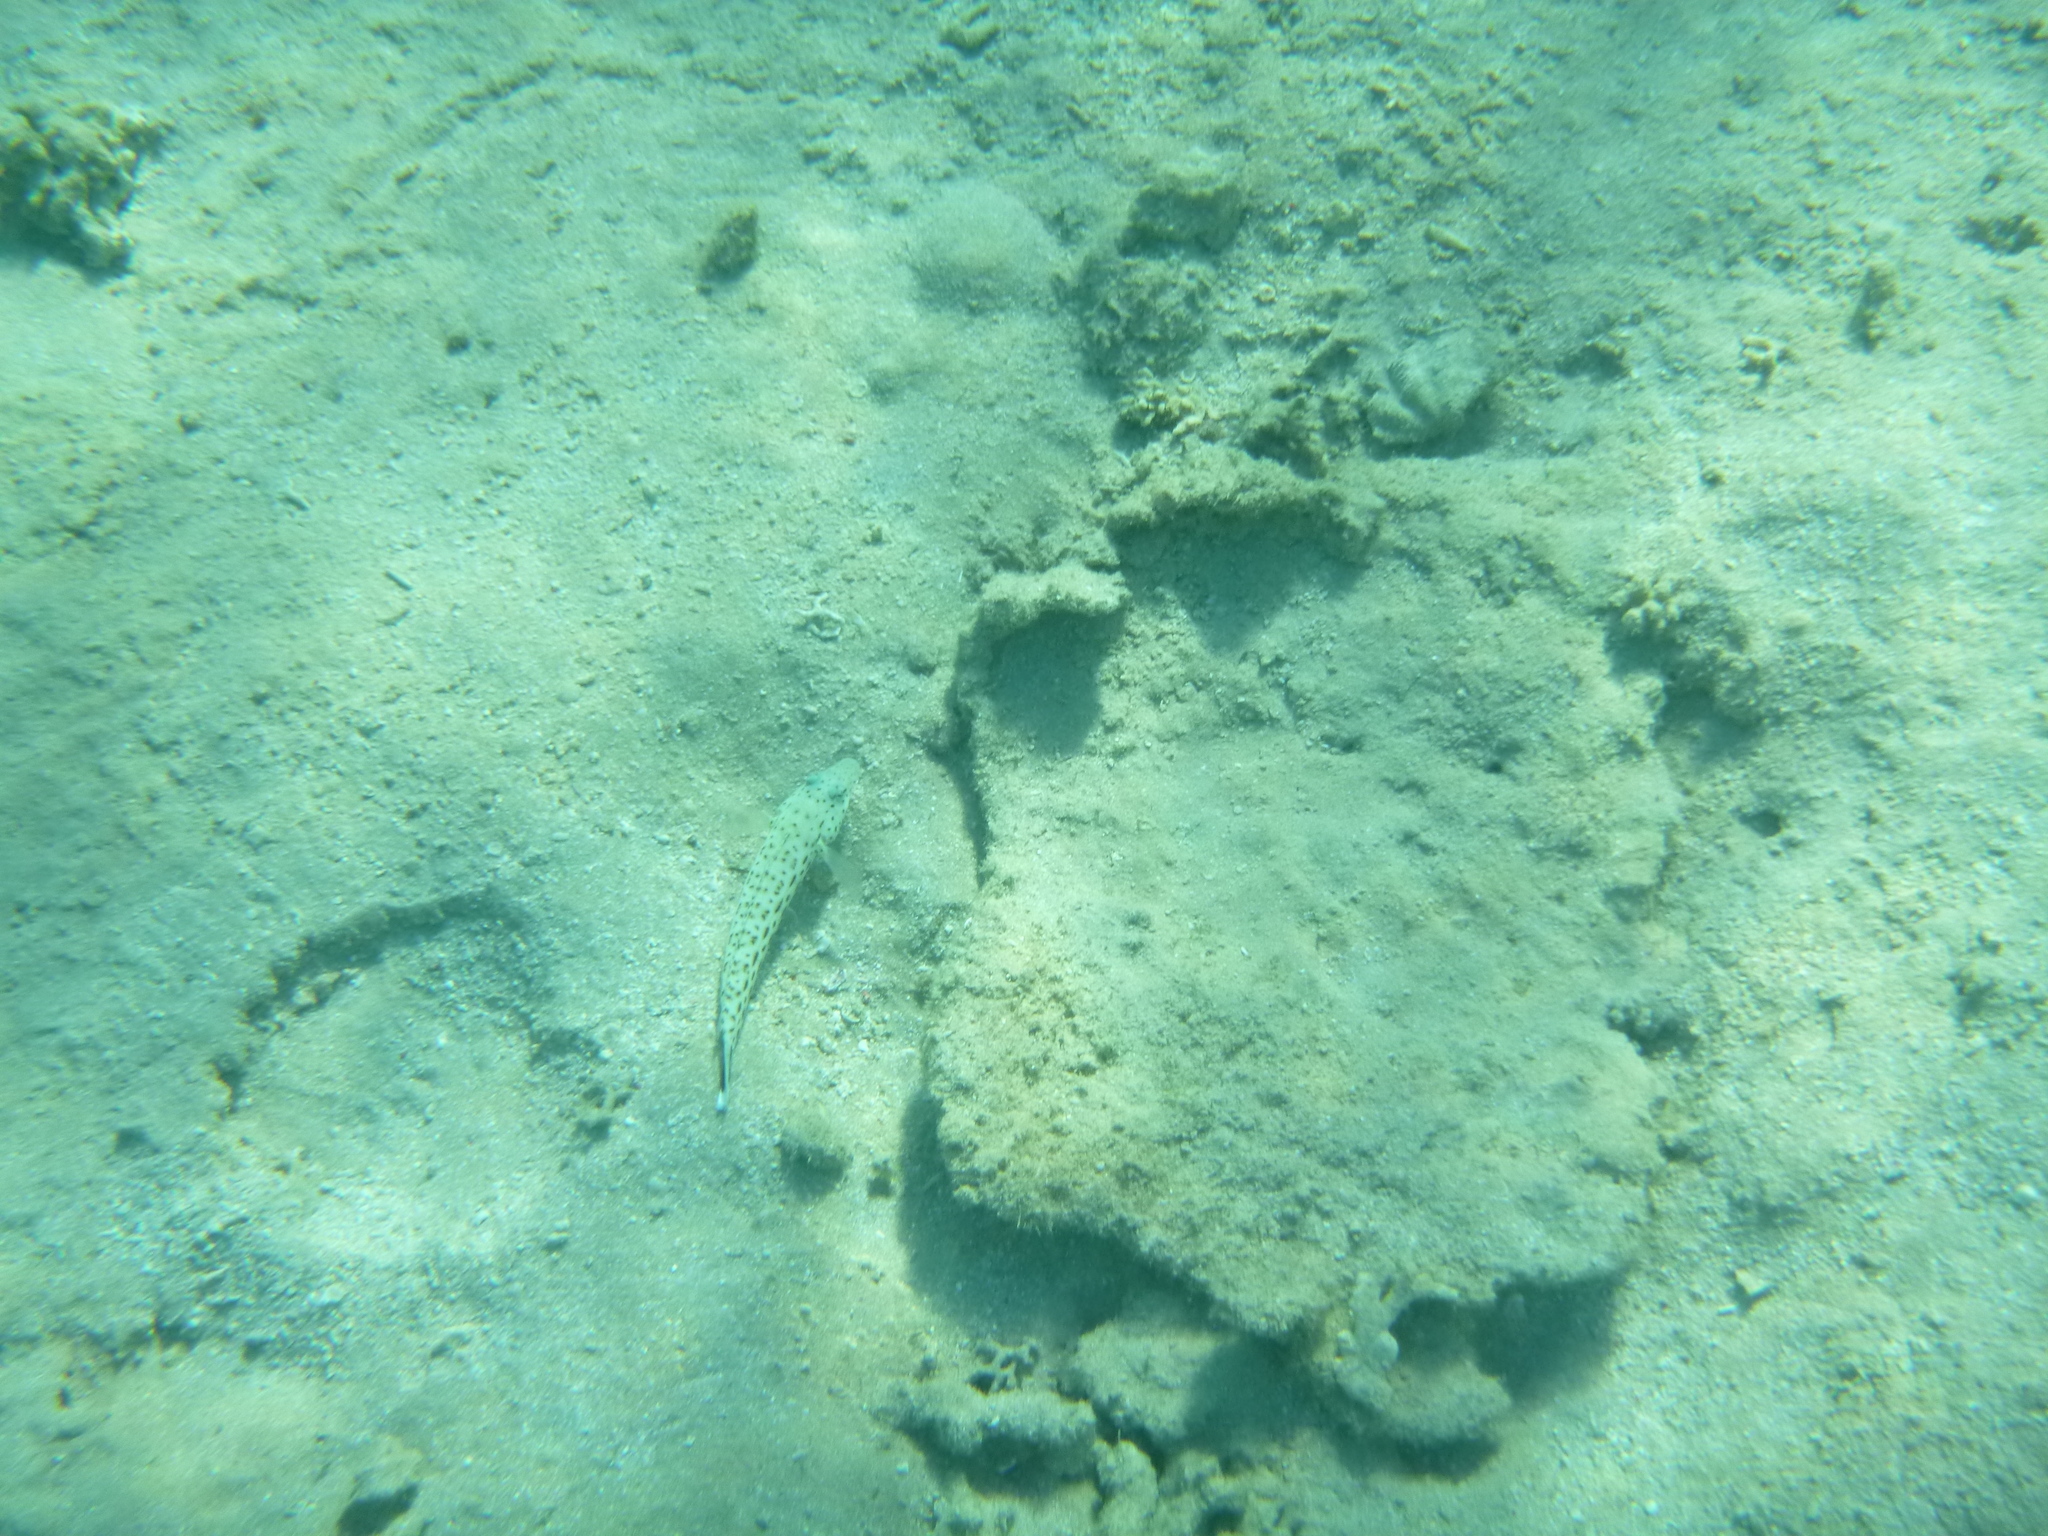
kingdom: Animalia
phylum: Chordata
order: Perciformes
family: Pinguipedidae
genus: Parapercis
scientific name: Parapercis hexophtalma
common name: Speckled sandperch
